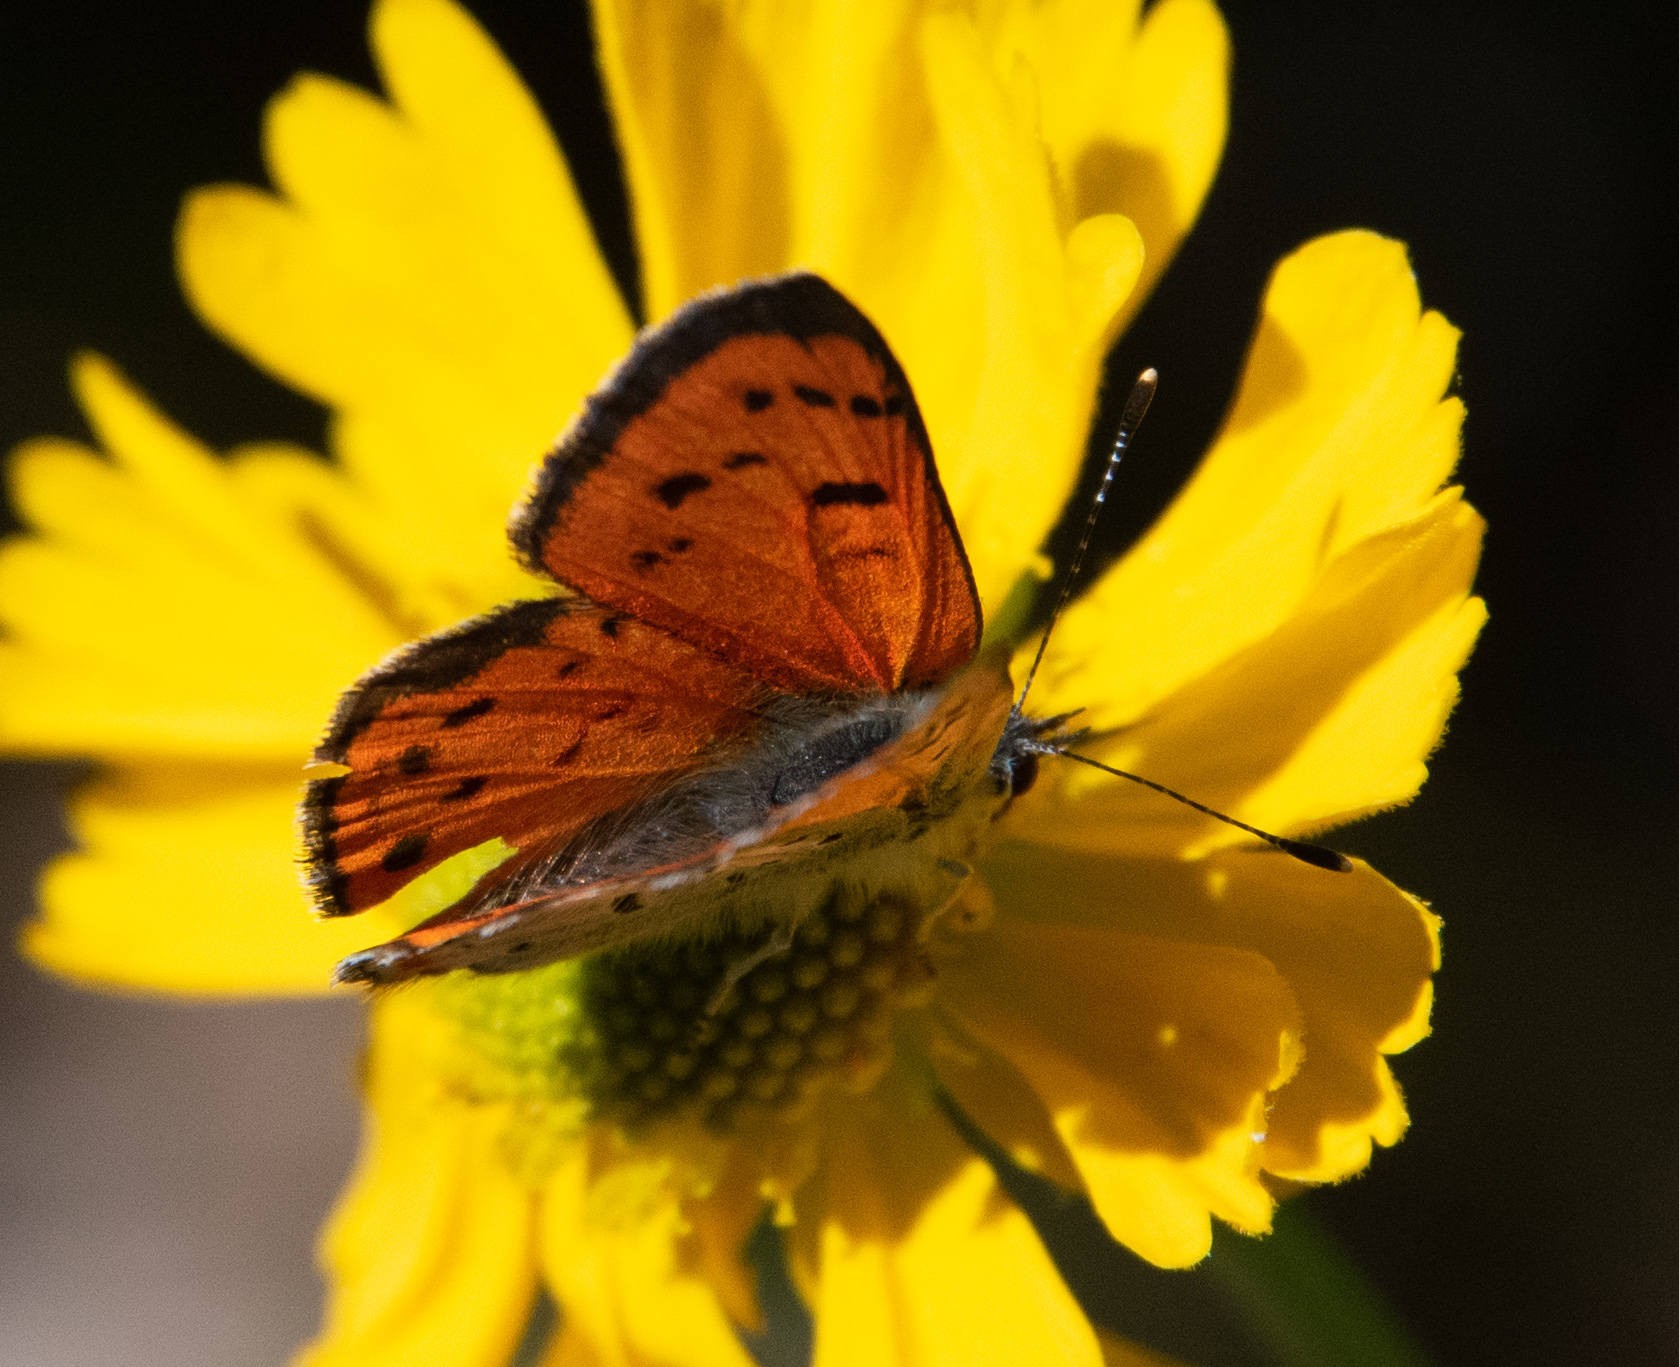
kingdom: Animalia
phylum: Arthropoda
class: Insecta
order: Lepidoptera
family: Lycaenidae
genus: Lycaena
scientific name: Lycaena cupreus
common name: Lustrous copper
